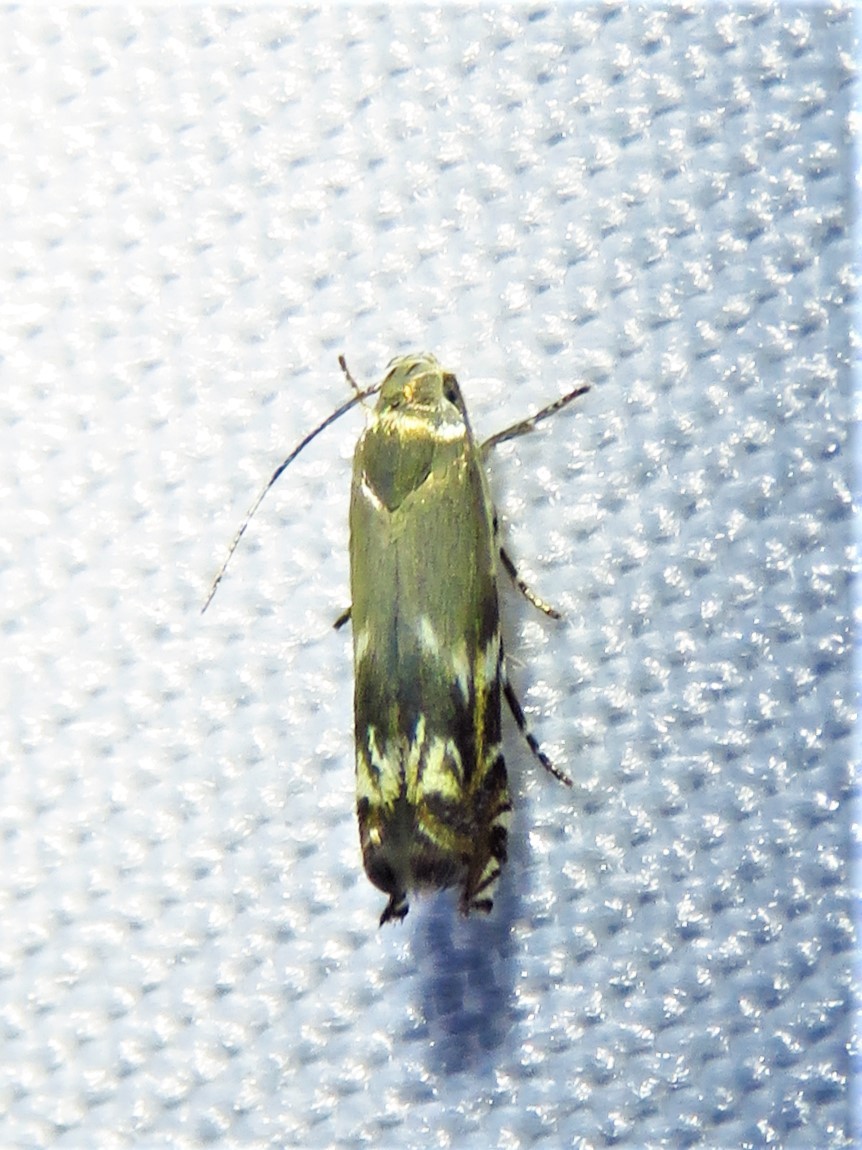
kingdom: Animalia
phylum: Arthropoda
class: Insecta
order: Lepidoptera
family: Gelechiidae
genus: Calliprora
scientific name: Calliprora sexstrigella
